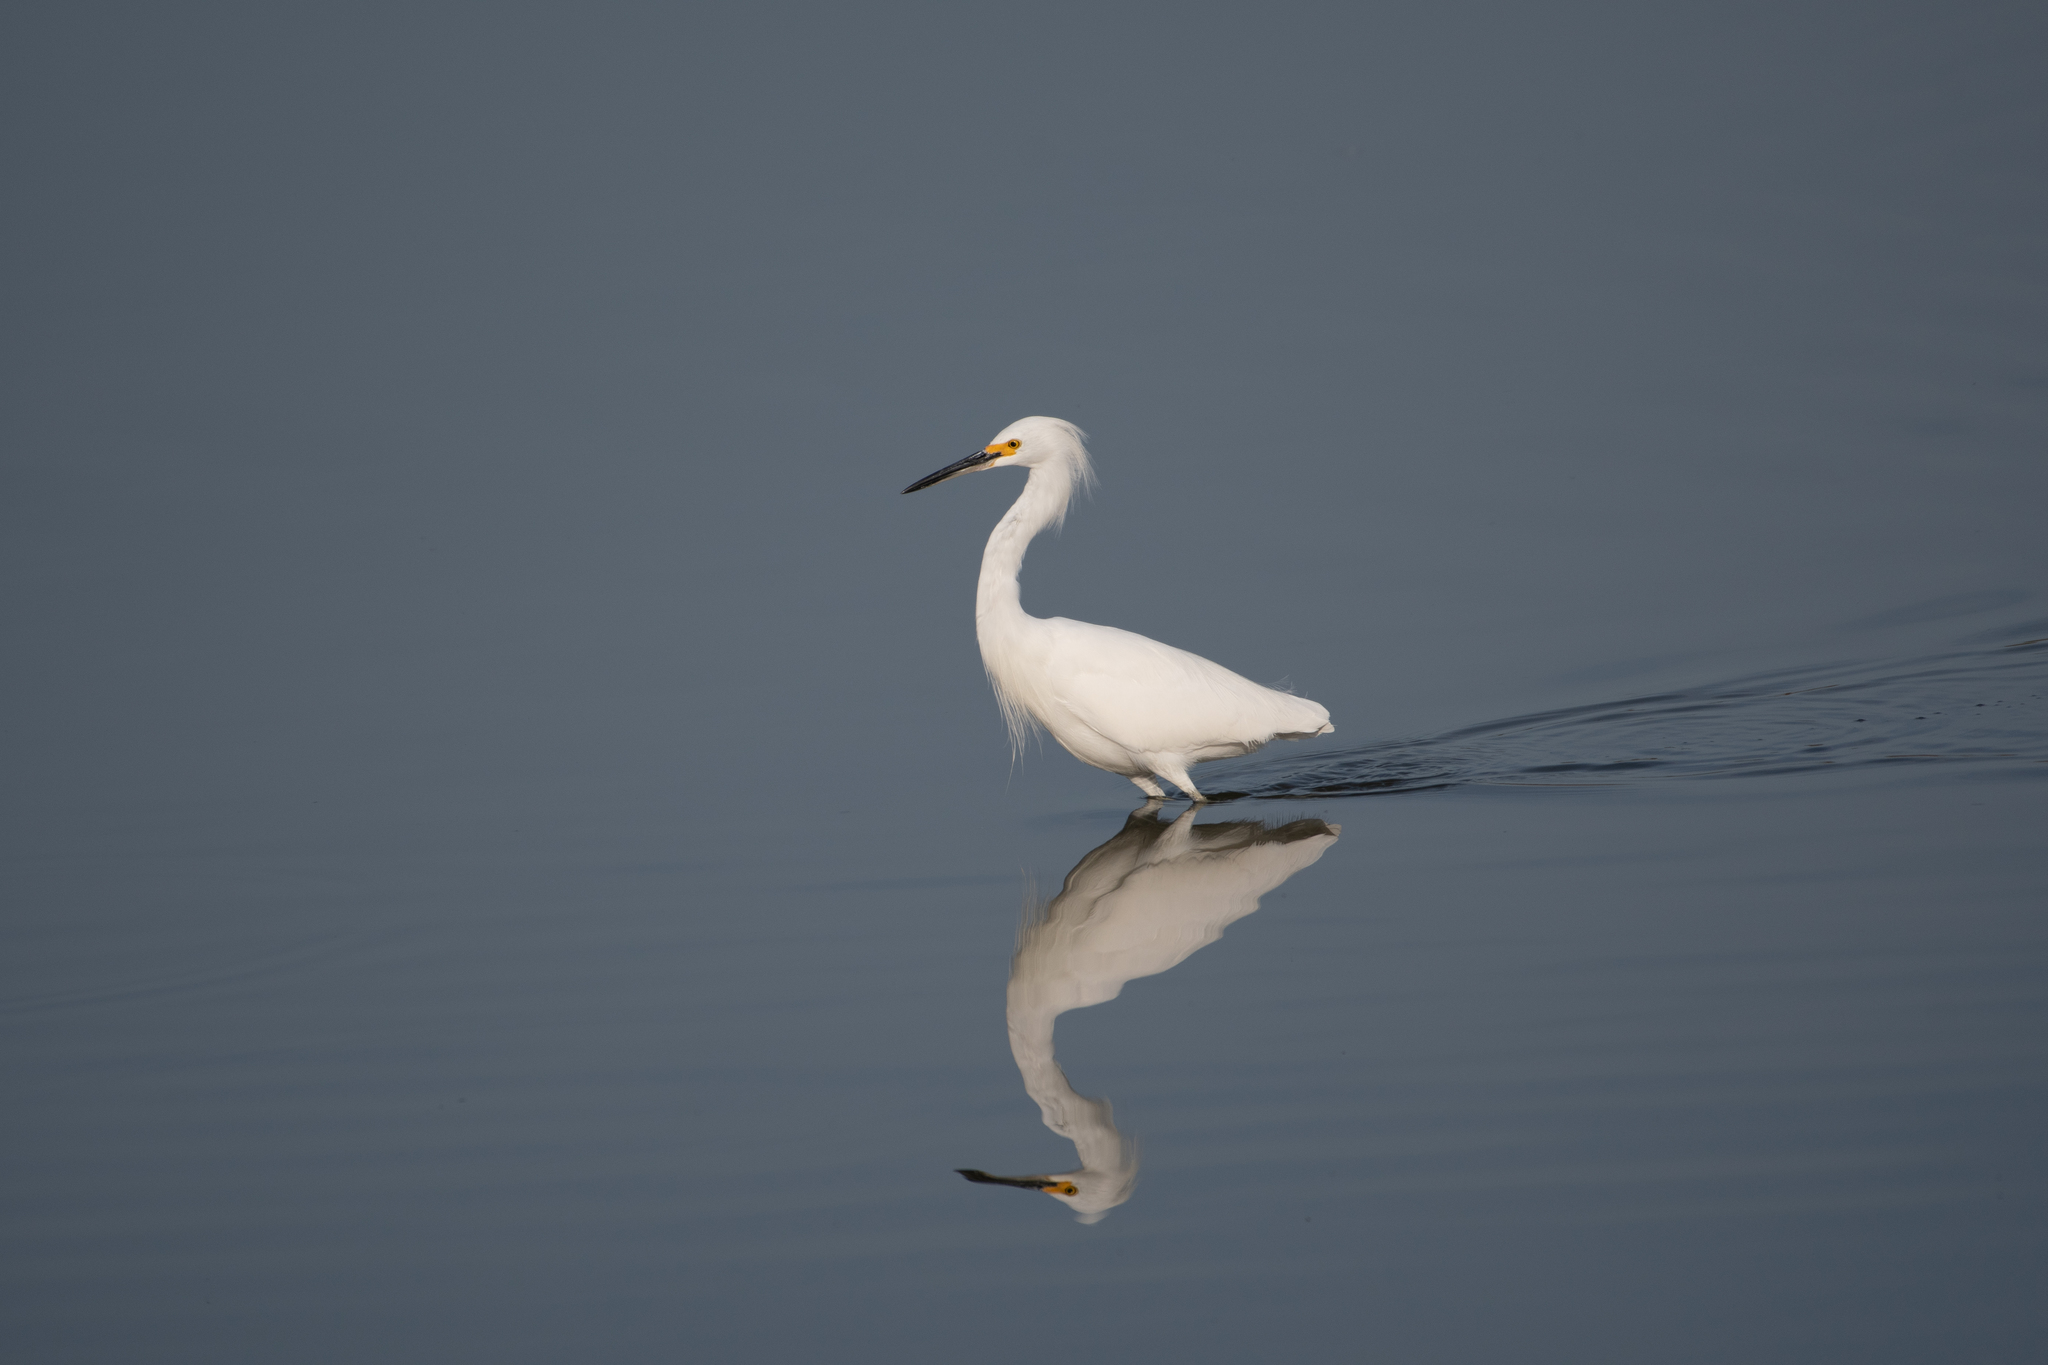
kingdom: Animalia
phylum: Chordata
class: Aves
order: Pelecaniformes
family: Ardeidae
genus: Egretta
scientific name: Egretta thula
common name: Snowy egret
